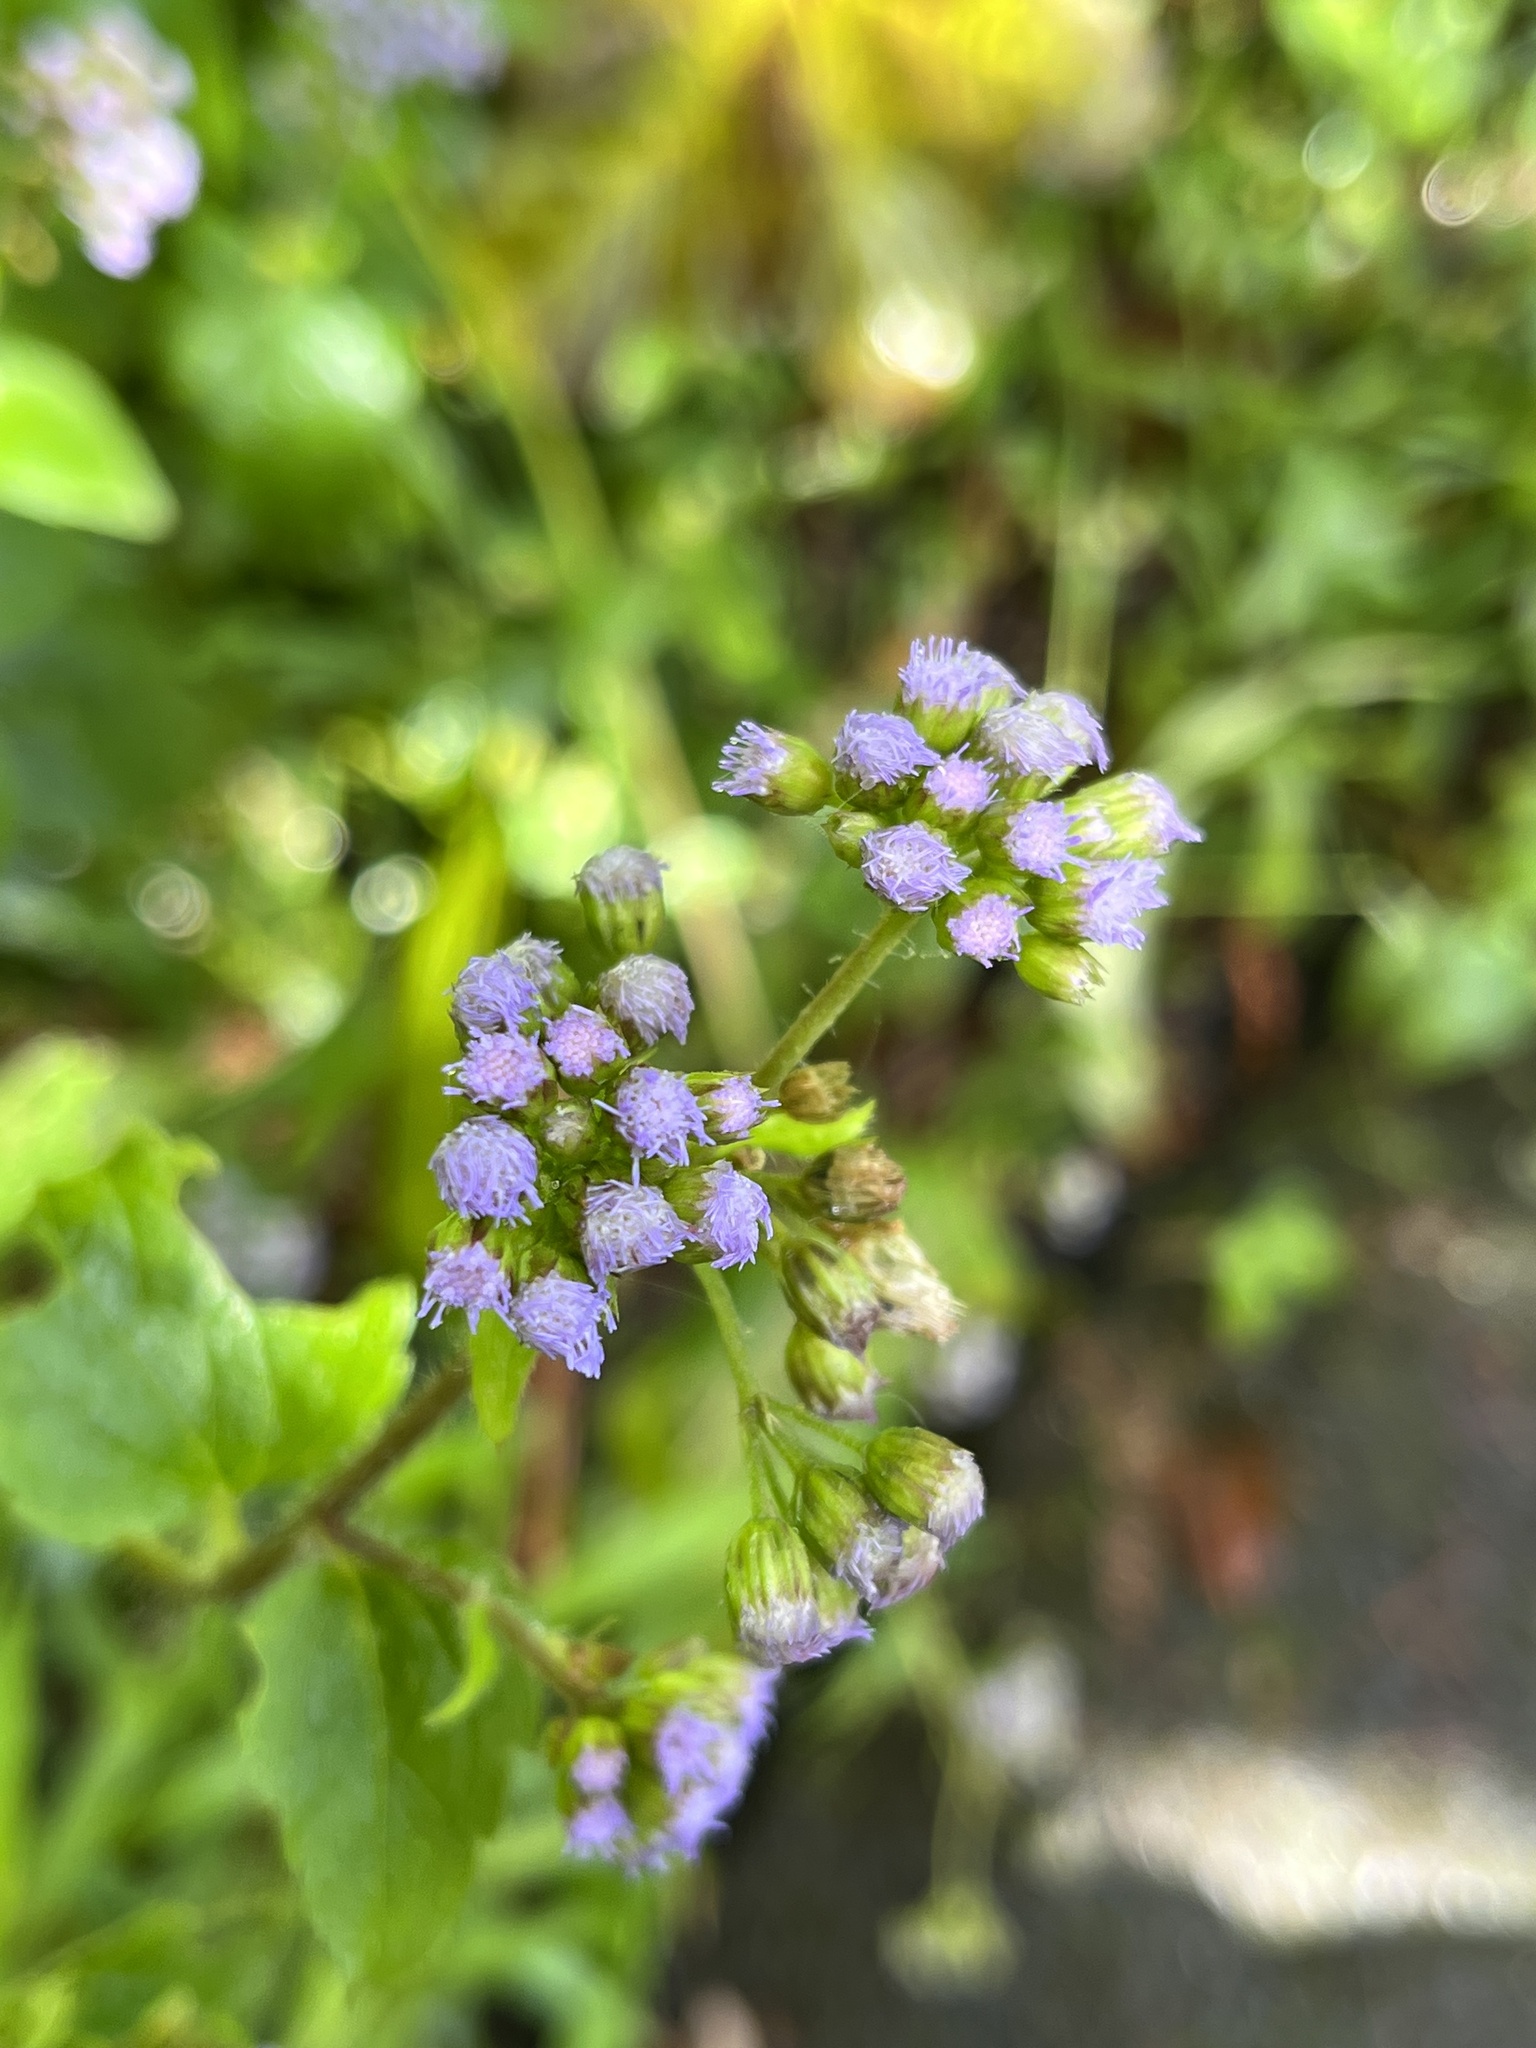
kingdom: Plantae
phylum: Tracheophyta
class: Magnoliopsida
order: Asterales
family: Asteraceae
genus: Ageratum
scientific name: Ageratum conyzoides
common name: Tropical whiteweed
